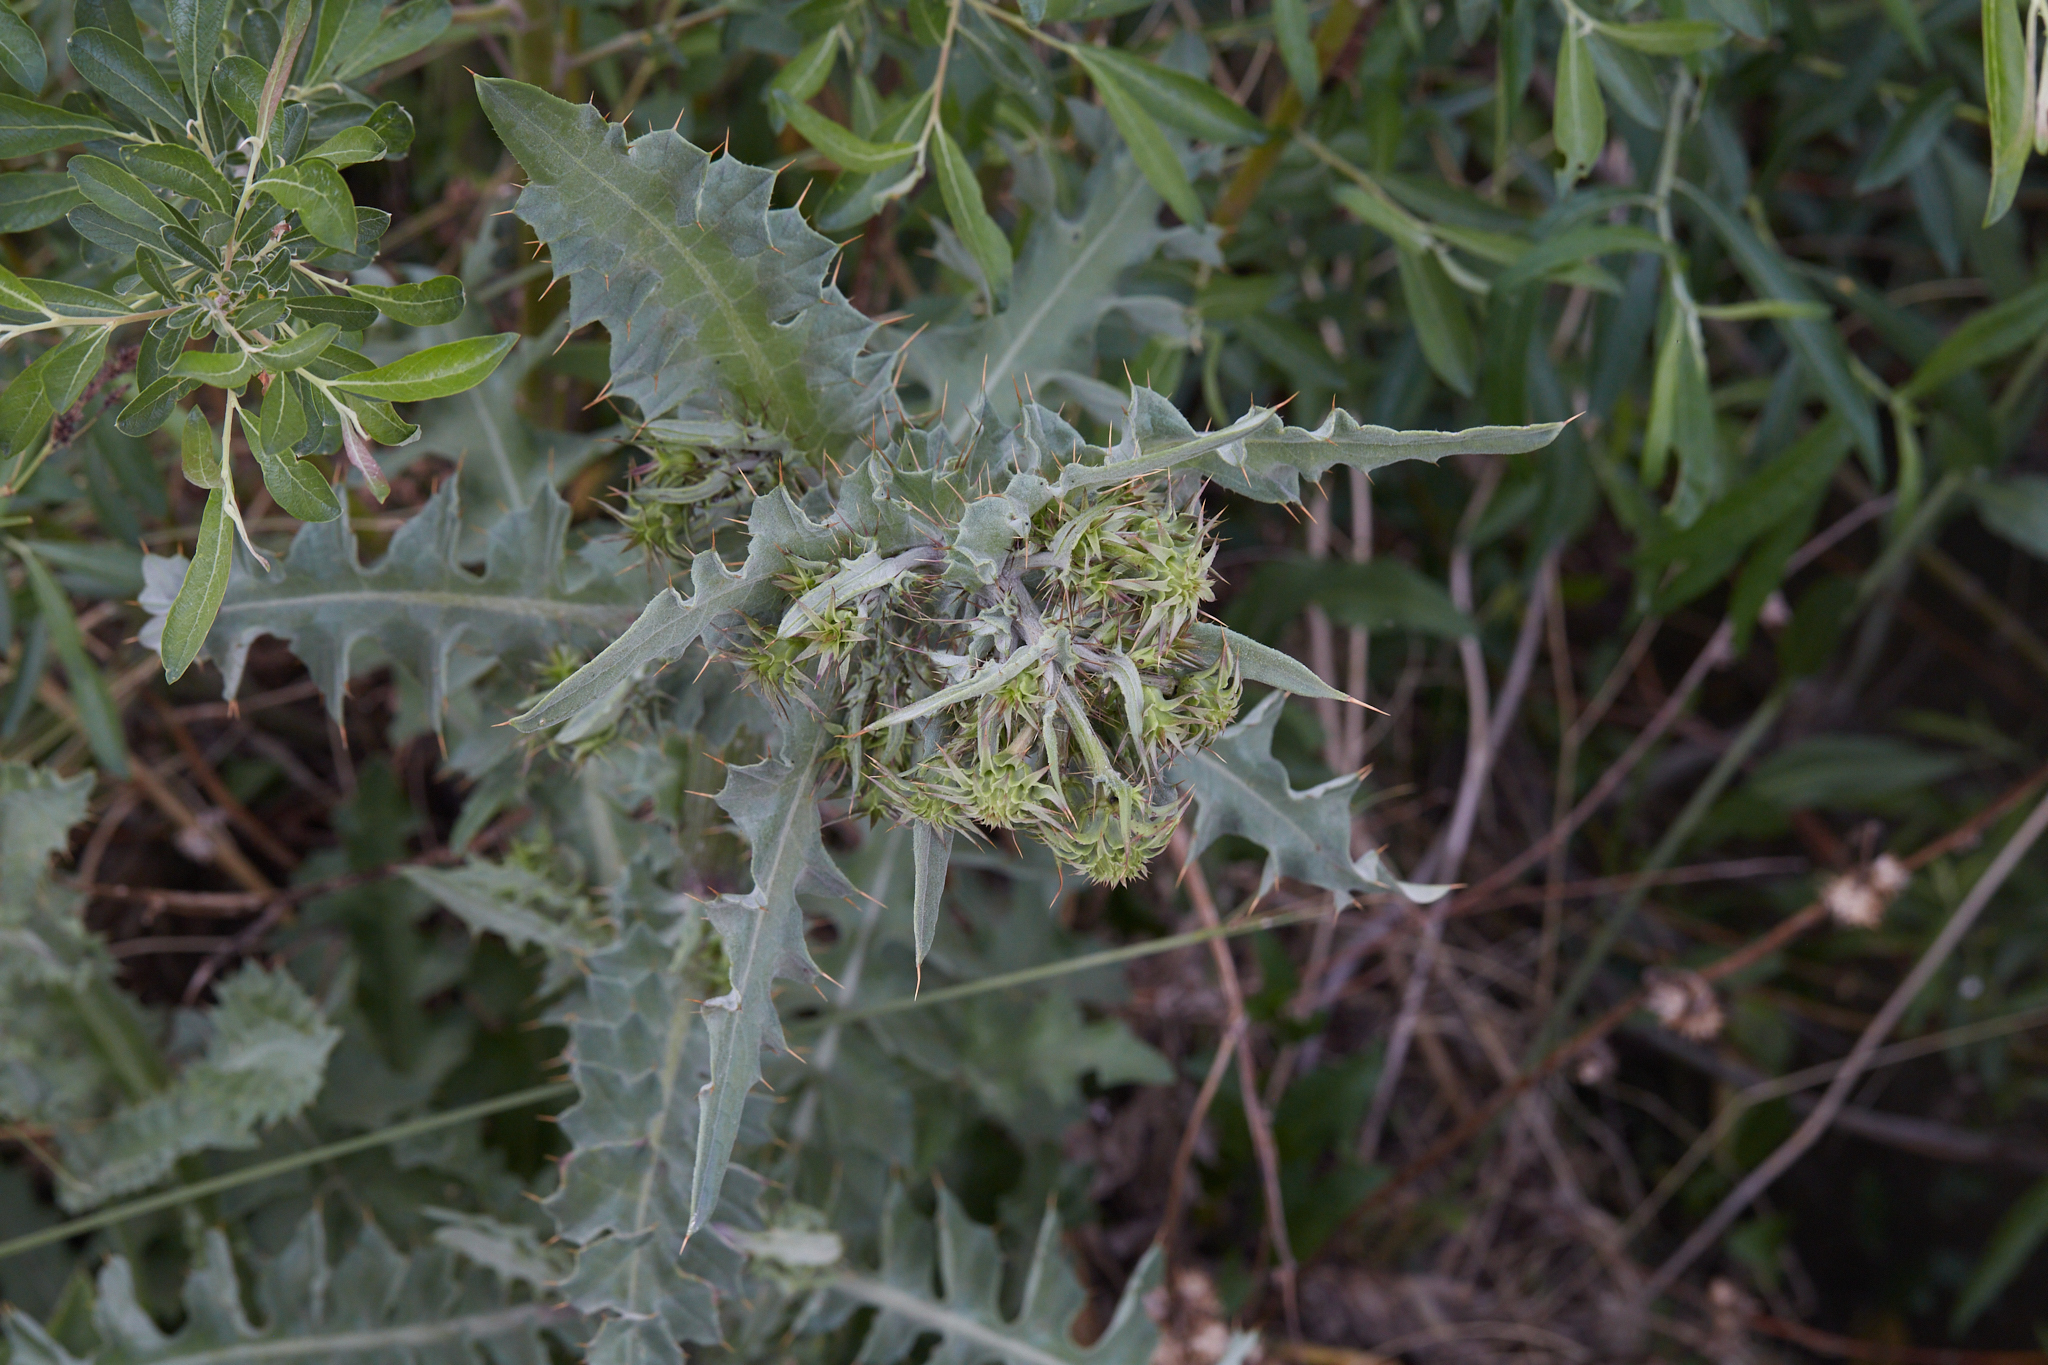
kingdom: Plantae
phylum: Tracheophyta
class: Magnoliopsida
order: Asterales
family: Asteraceae
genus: Cirsium
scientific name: Cirsium fontinale
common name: Fountain thistle
